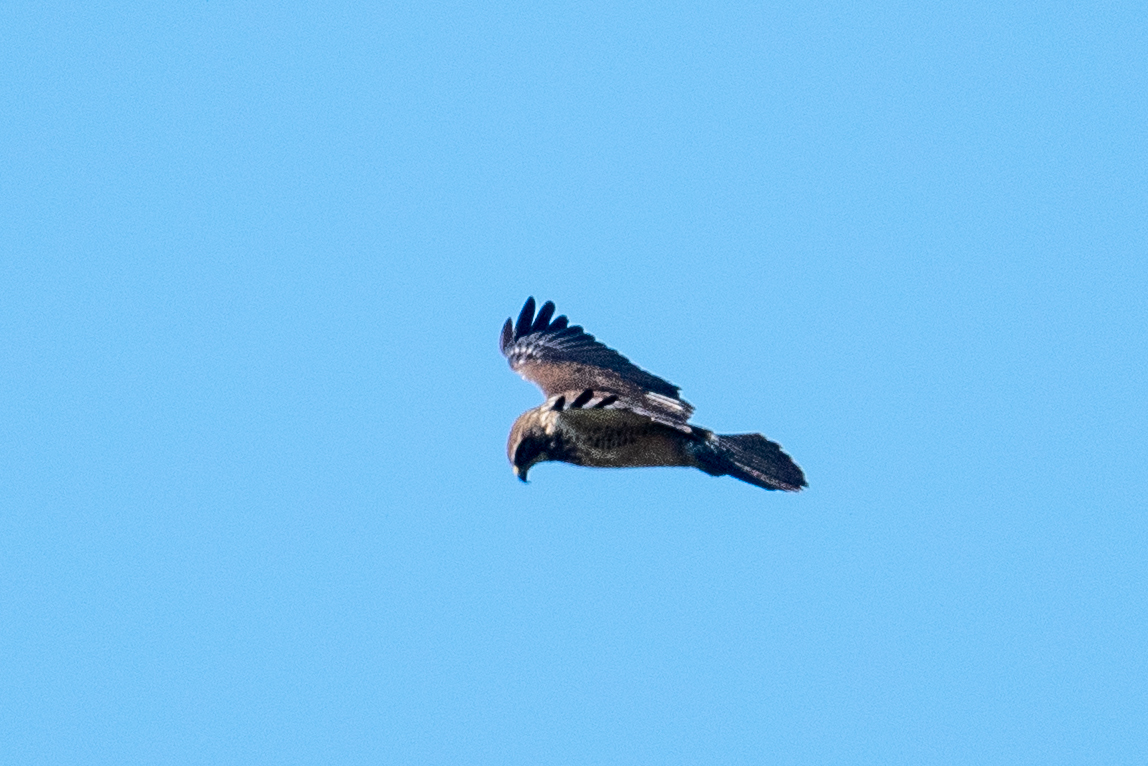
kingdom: Animalia
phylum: Chordata
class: Aves
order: Accipitriformes
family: Accipitridae
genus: Buteo
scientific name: Buteo swainsoni
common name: Swainson's hawk
